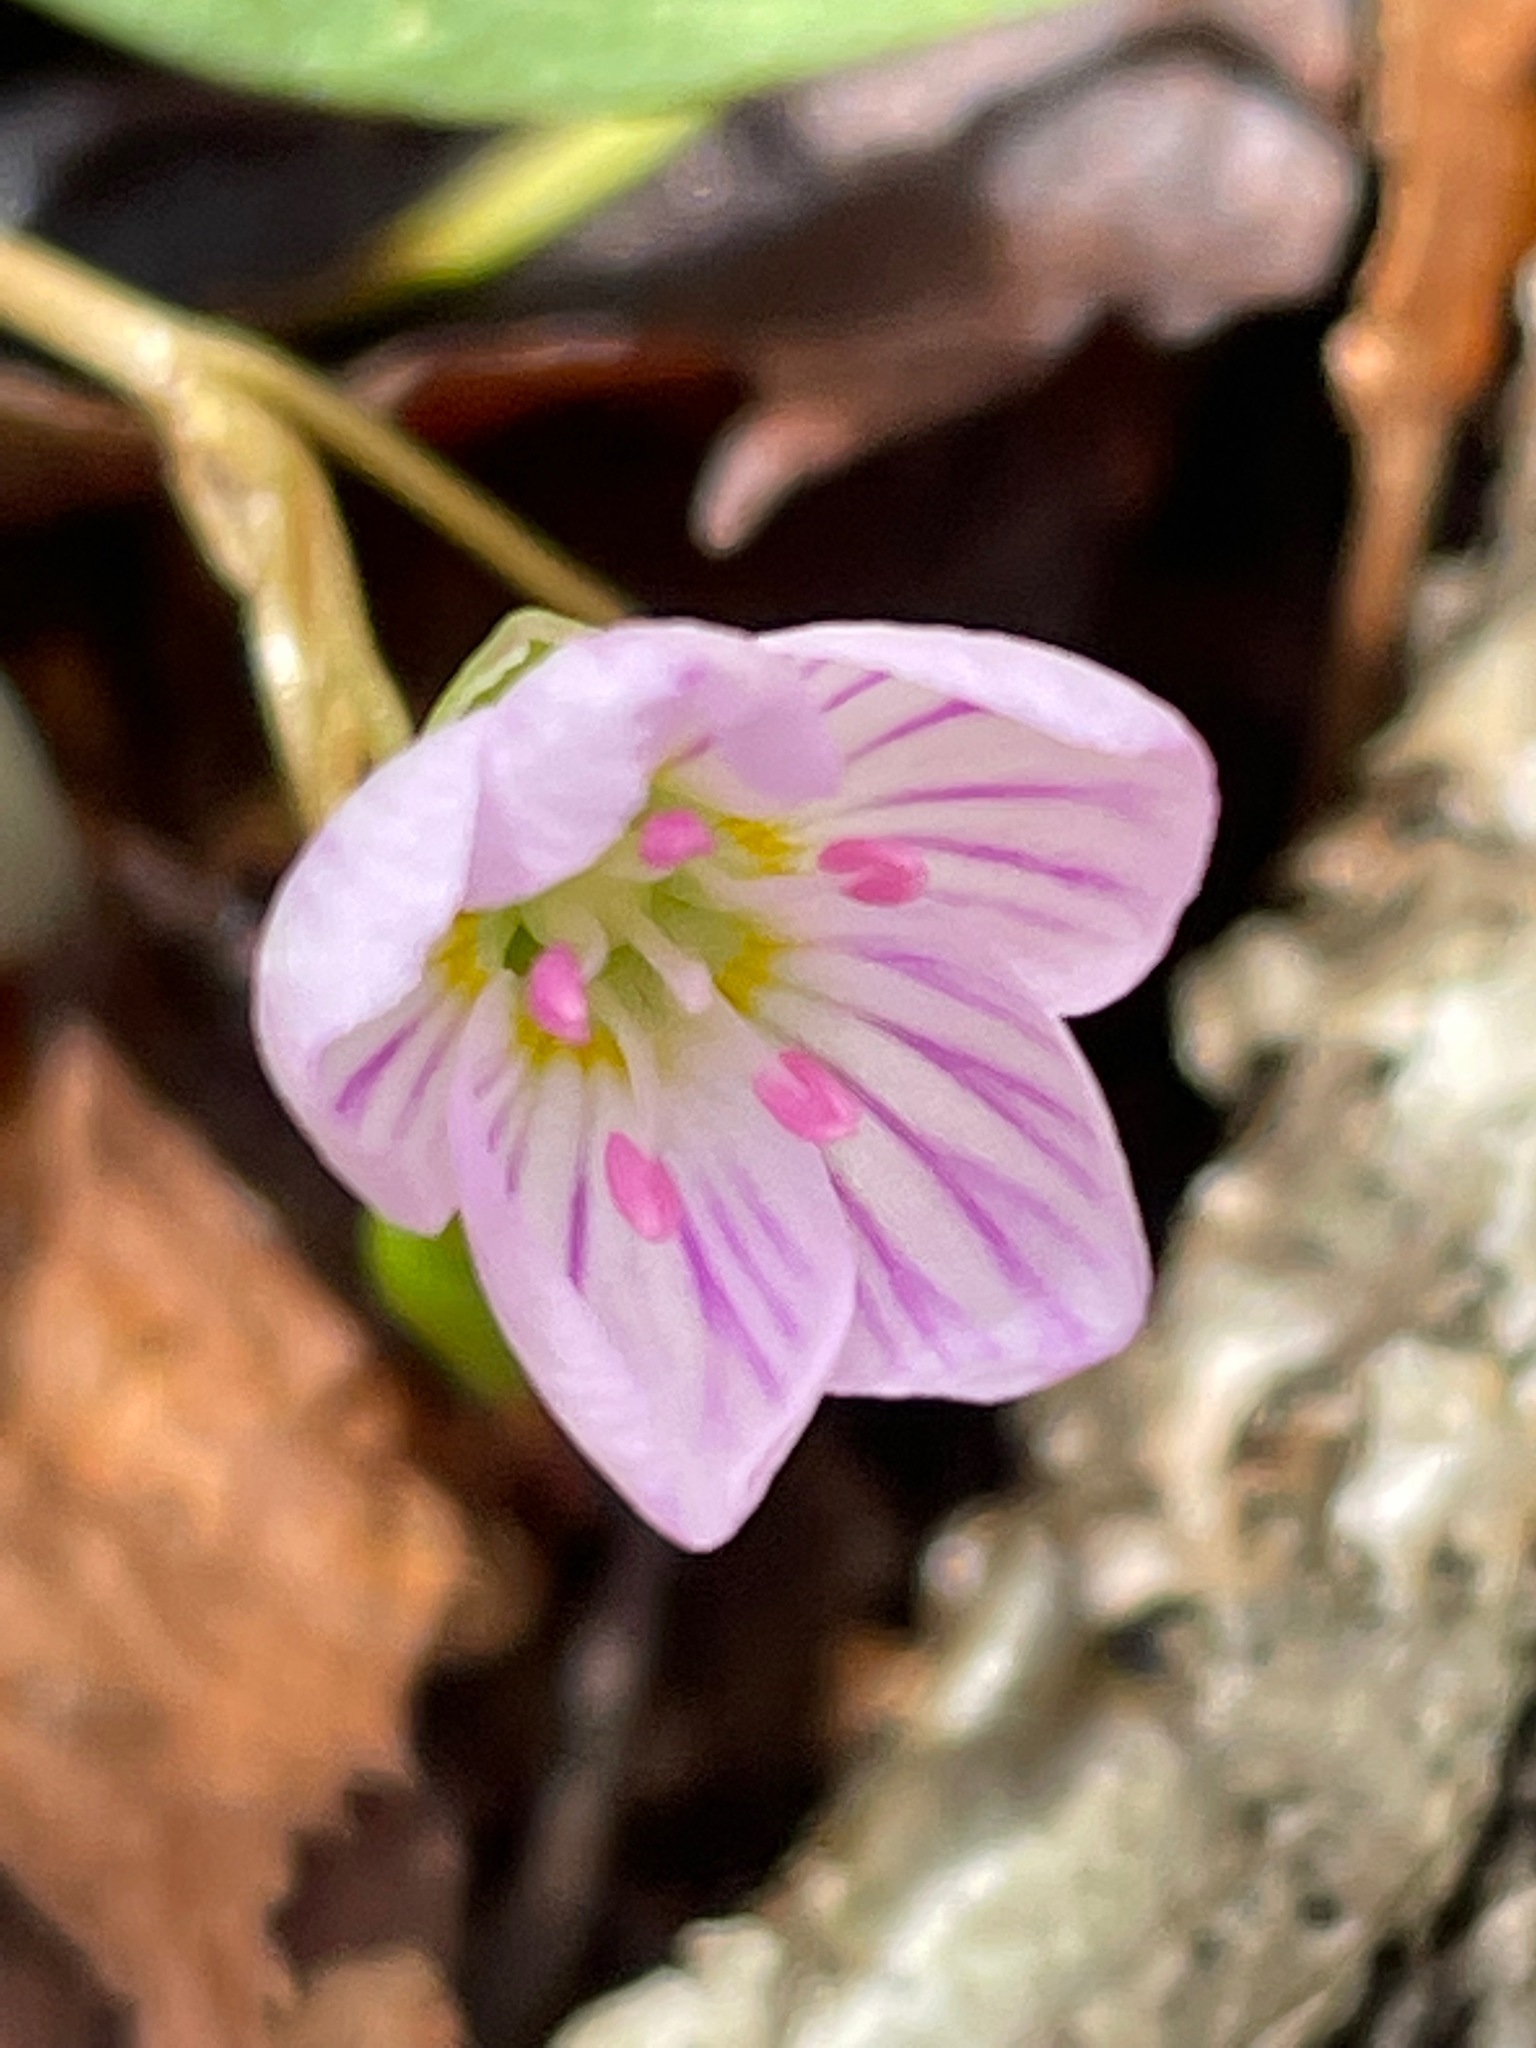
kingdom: Plantae
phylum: Tracheophyta
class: Magnoliopsida
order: Caryophyllales
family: Montiaceae
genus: Claytonia
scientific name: Claytonia caroliniana
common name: Carolina spring beauty
